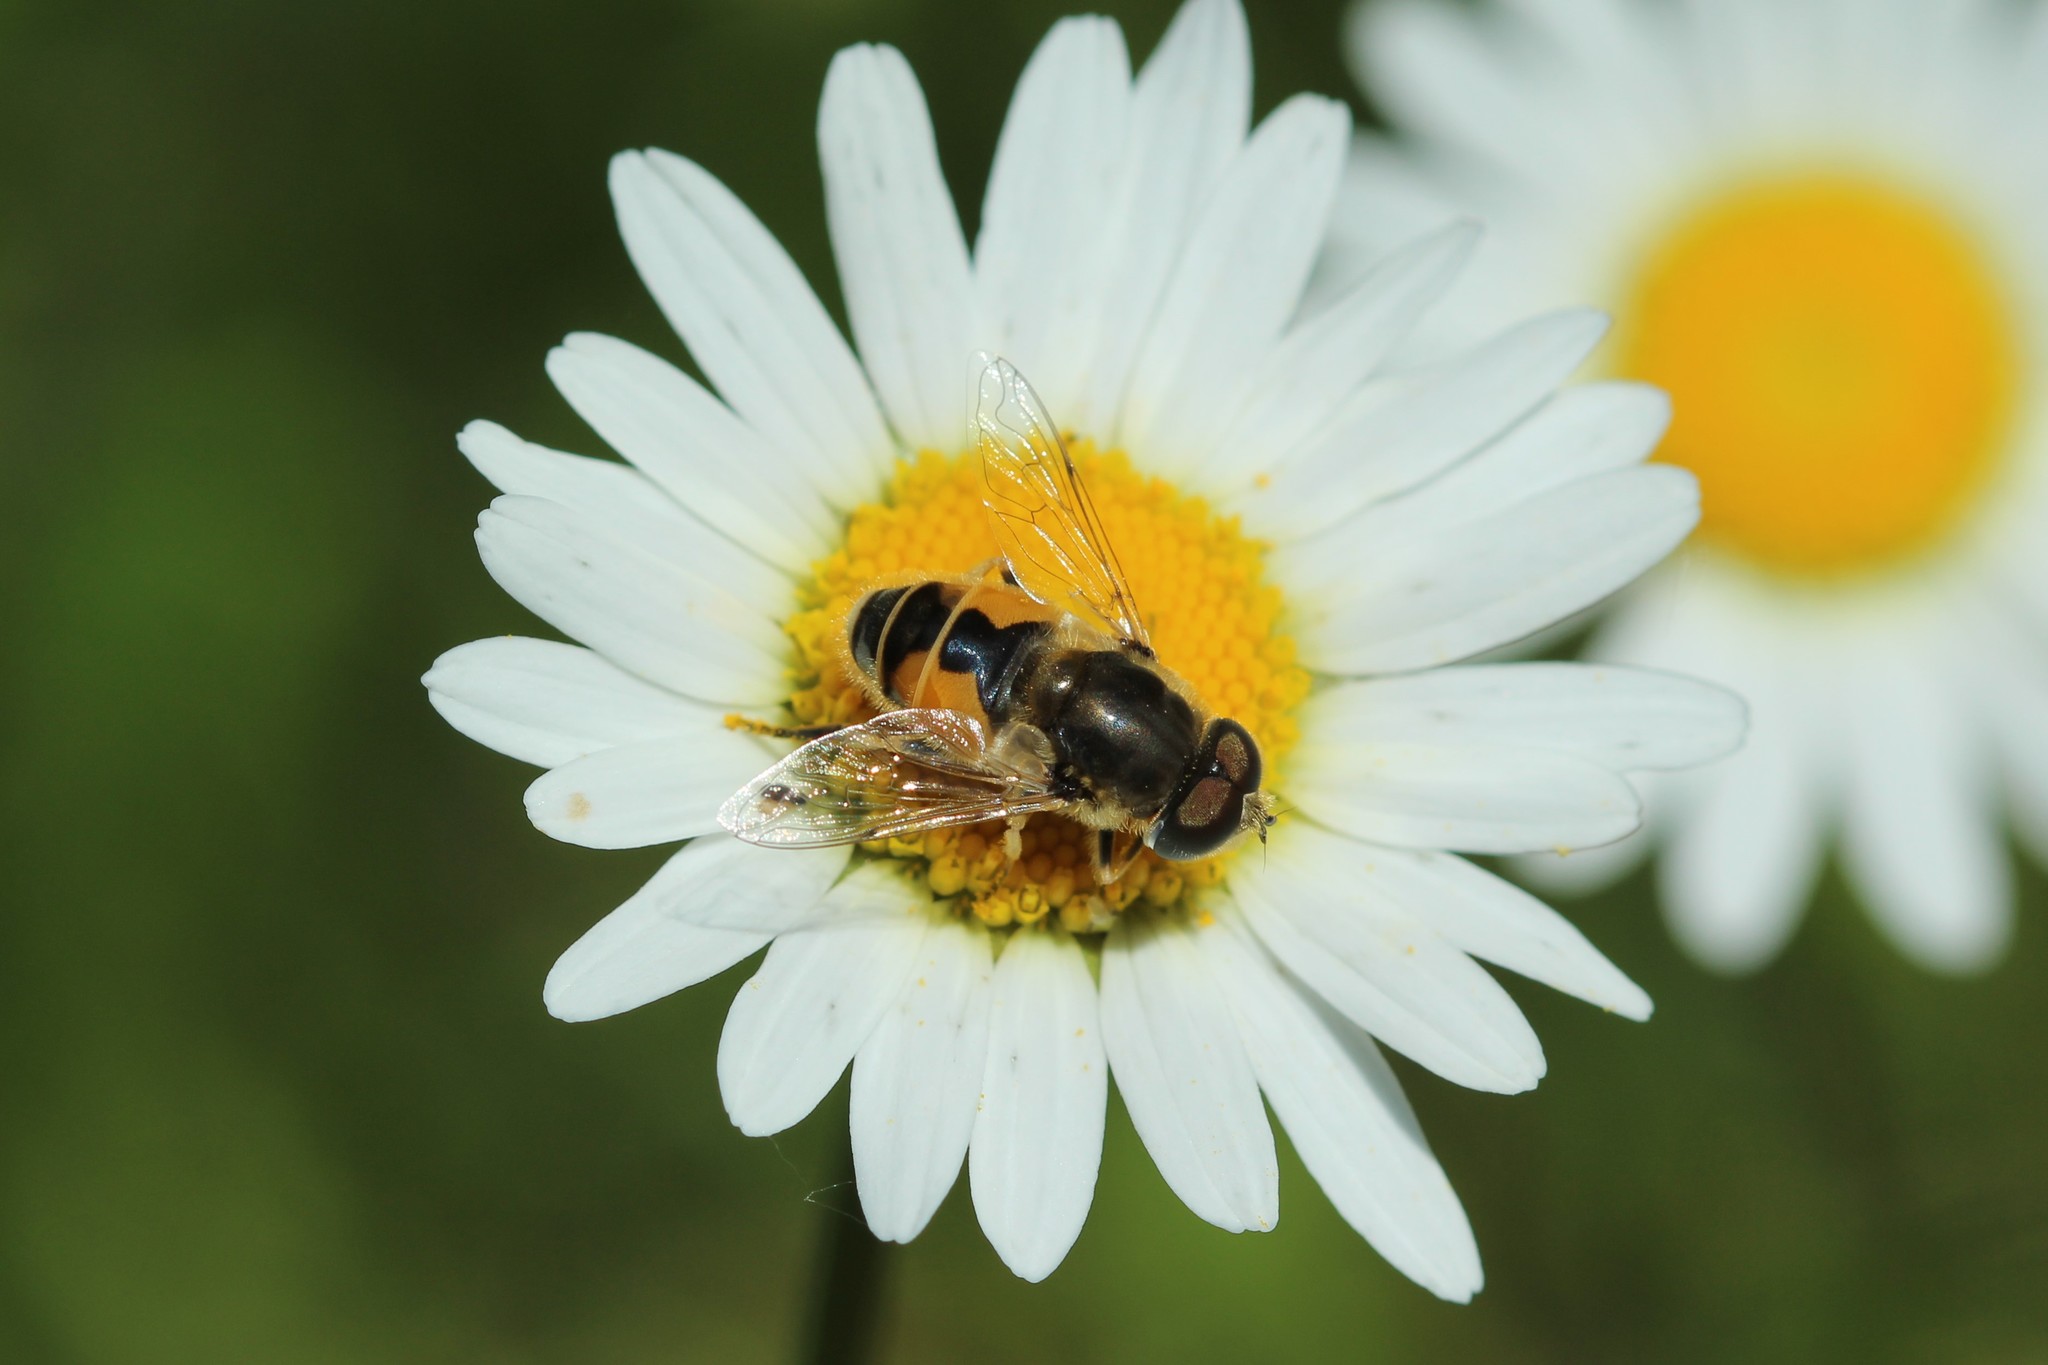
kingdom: Animalia
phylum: Arthropoda
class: Insecta
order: Diptera
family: Syrphidae
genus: Eristalis
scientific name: Eristalis arbustorum
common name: Hover fly
